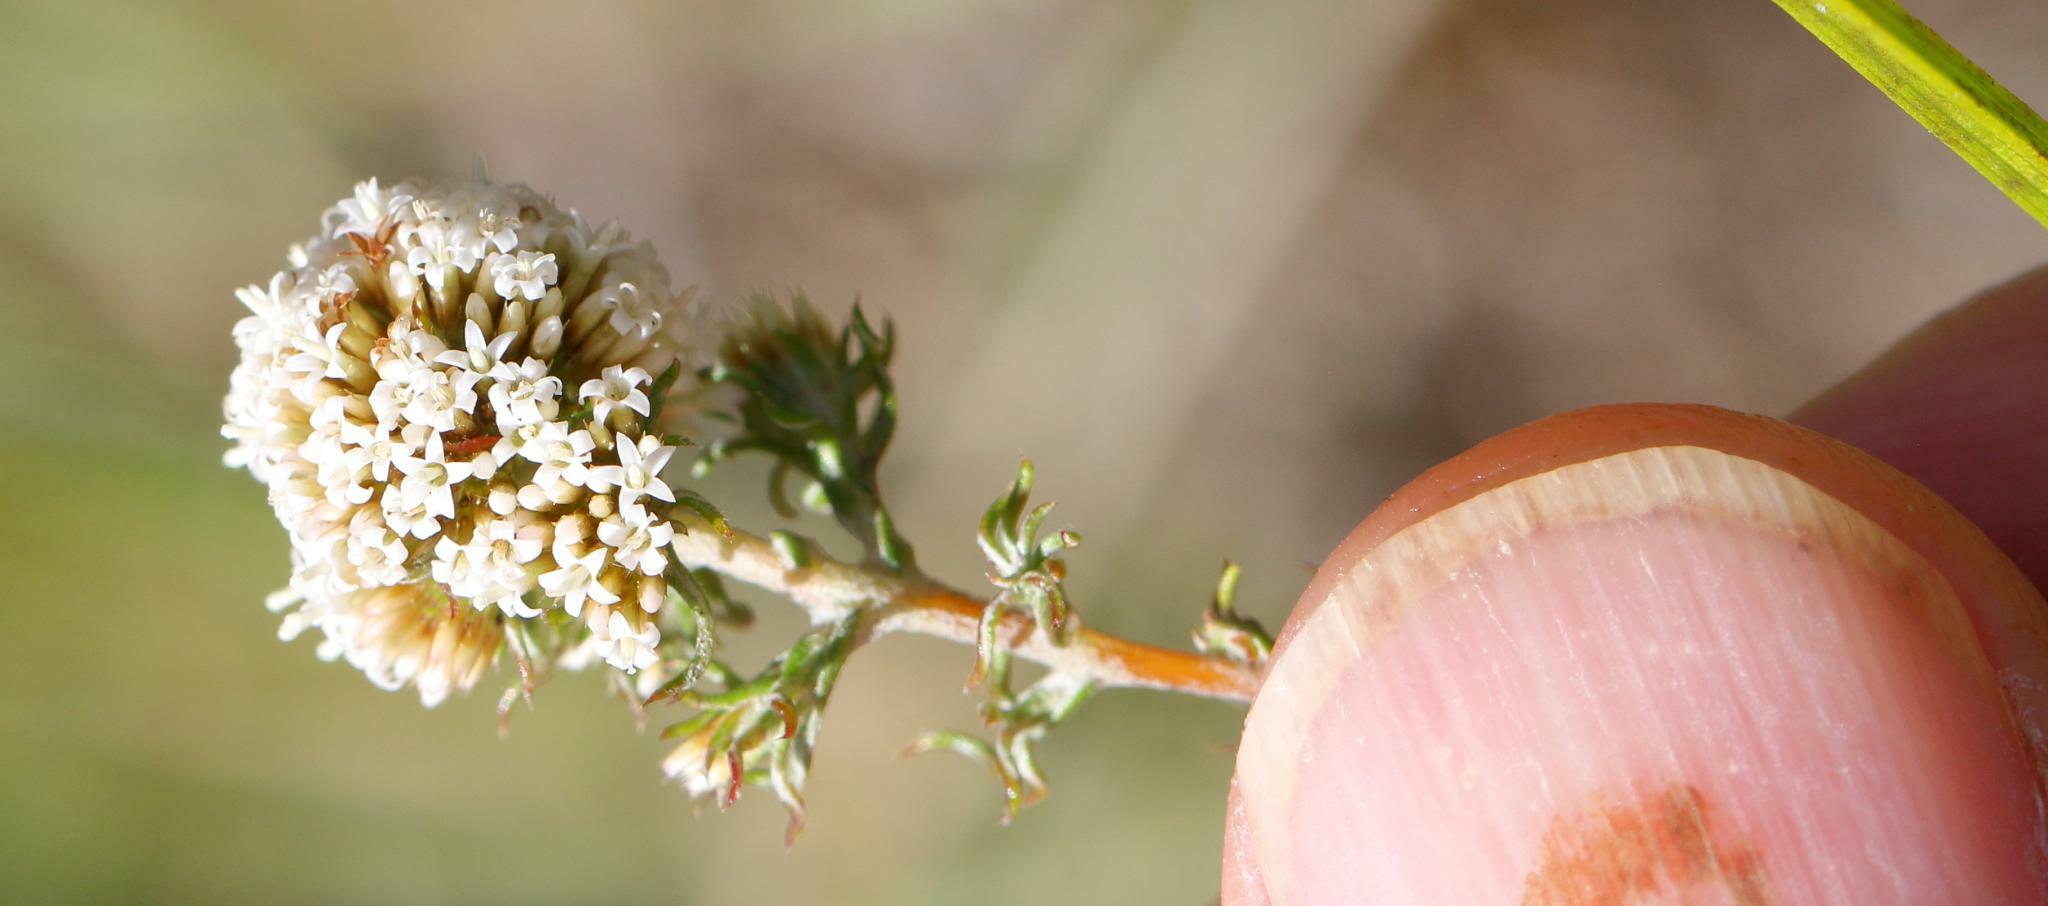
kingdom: Plantae
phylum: Tracheophyta
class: Magnoliopsida
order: Asterales
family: Asteraceae
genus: Stoebe
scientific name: Stoebe phyllostachya
